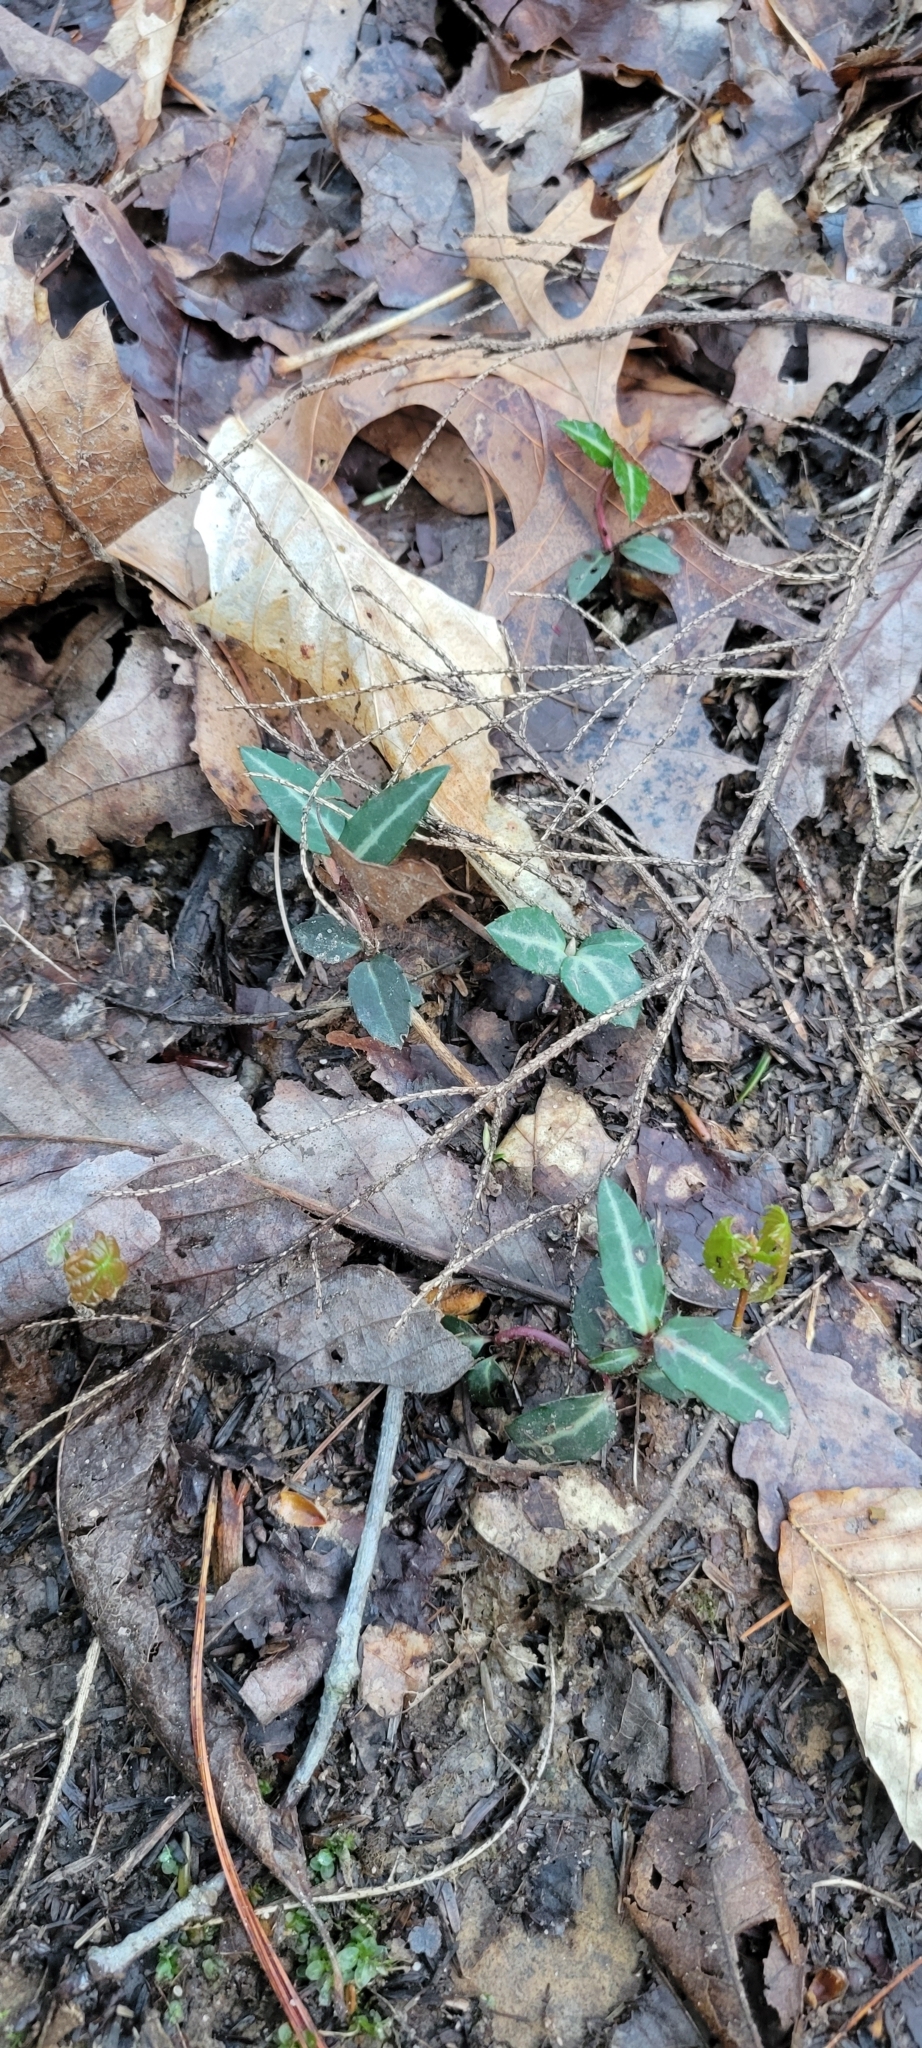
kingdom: Plantae
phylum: Tracheophyta
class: Magnoliopsida
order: Ericales
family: Ericaceae
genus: Chimaphila
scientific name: Chimaphila maculata
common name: Spotted pipsissewa
